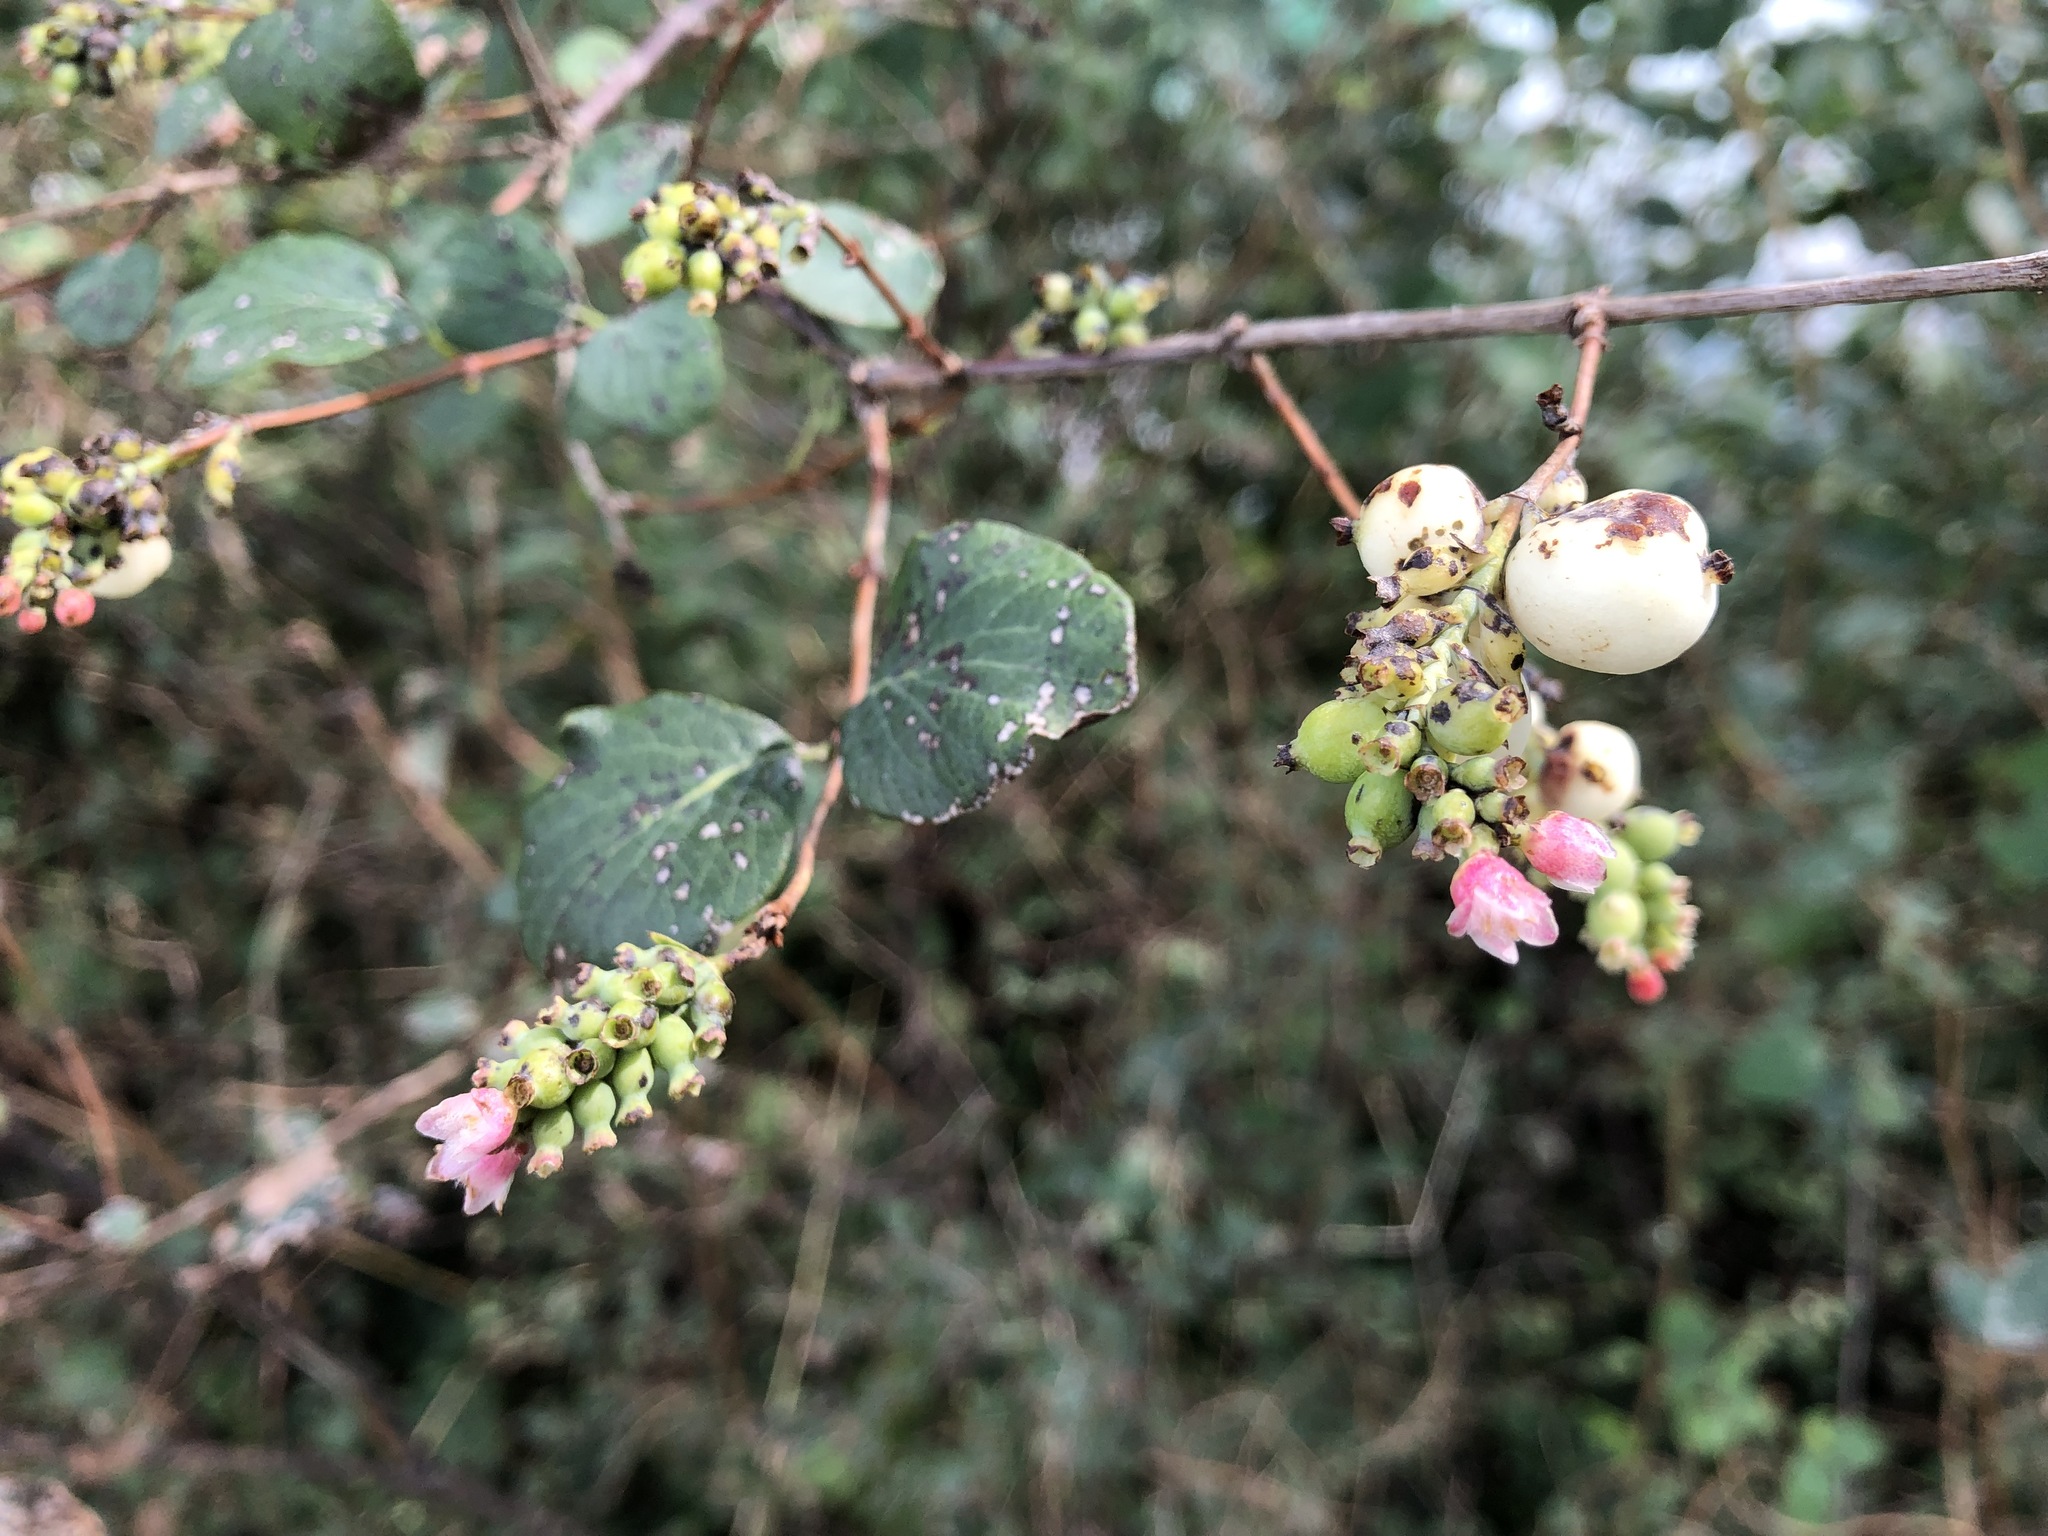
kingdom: Plantae
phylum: Tracheophyta
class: Magnoliopsida
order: Dipsacales
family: Caprifoliaceae
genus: Symphoricarpos
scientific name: Symphoricarpos albus
